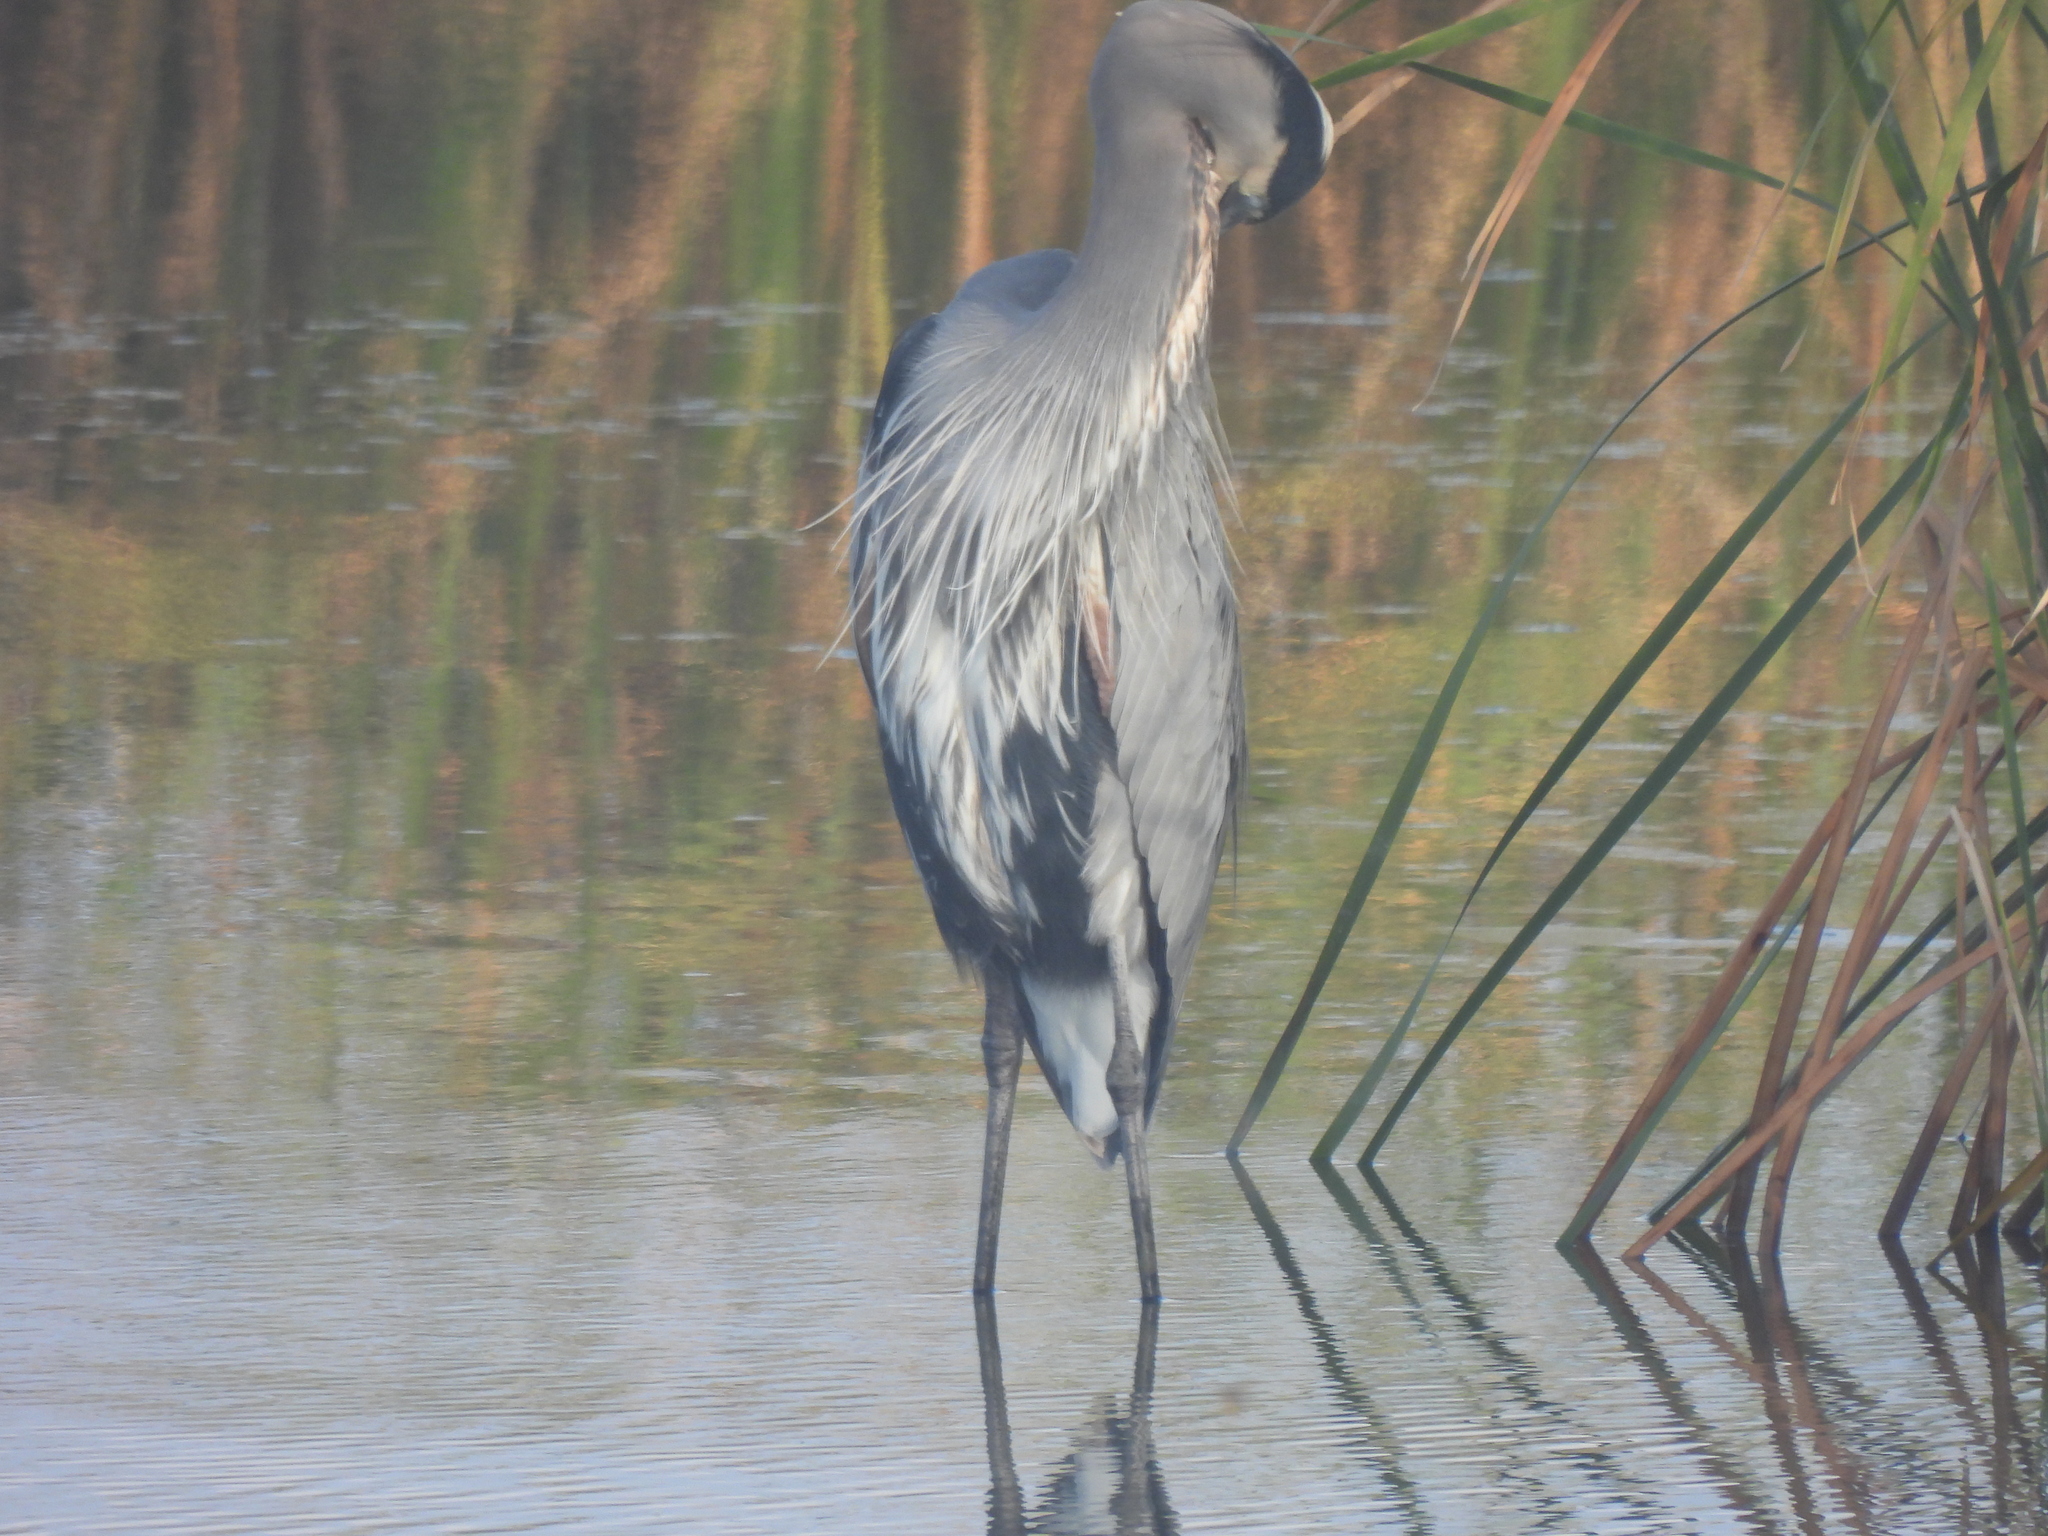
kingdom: Animalia
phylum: Chordata
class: Aves
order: Pelecaniformes
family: Ardeidae
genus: Ardea
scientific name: Ardea herodias
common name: Great blue heron
